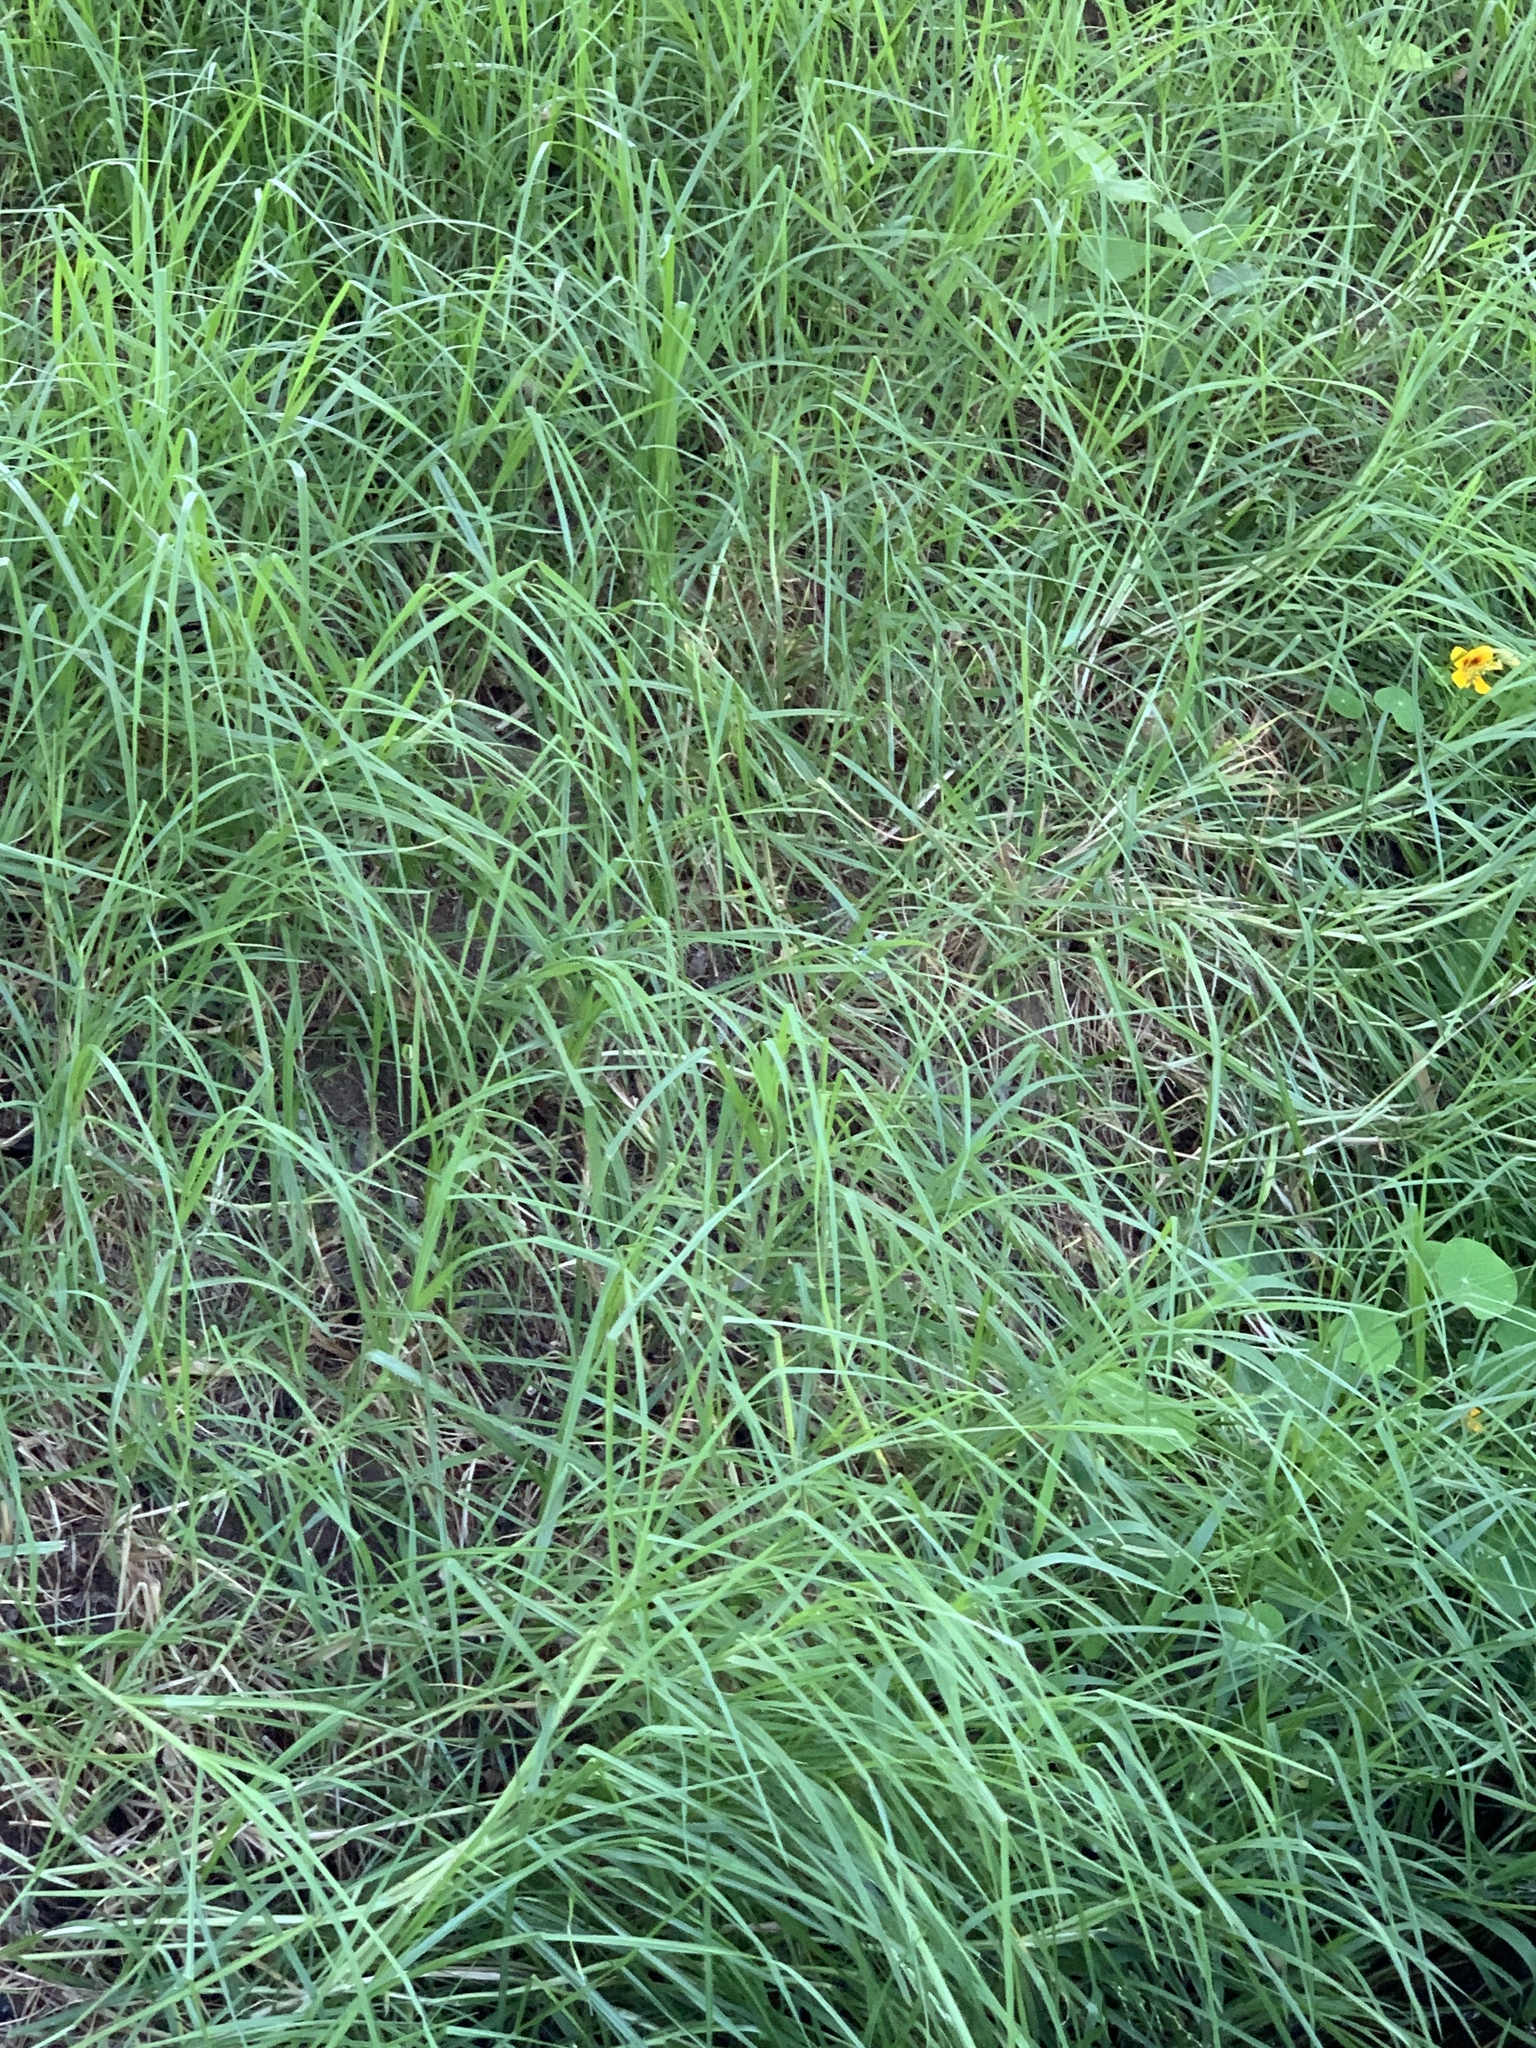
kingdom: Plantae
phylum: Tracheophyta
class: Liliopsida
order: Poales
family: Poaceae
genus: Cenchrus
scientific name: Cenchrus clandestinus
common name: Kikuyugrass
